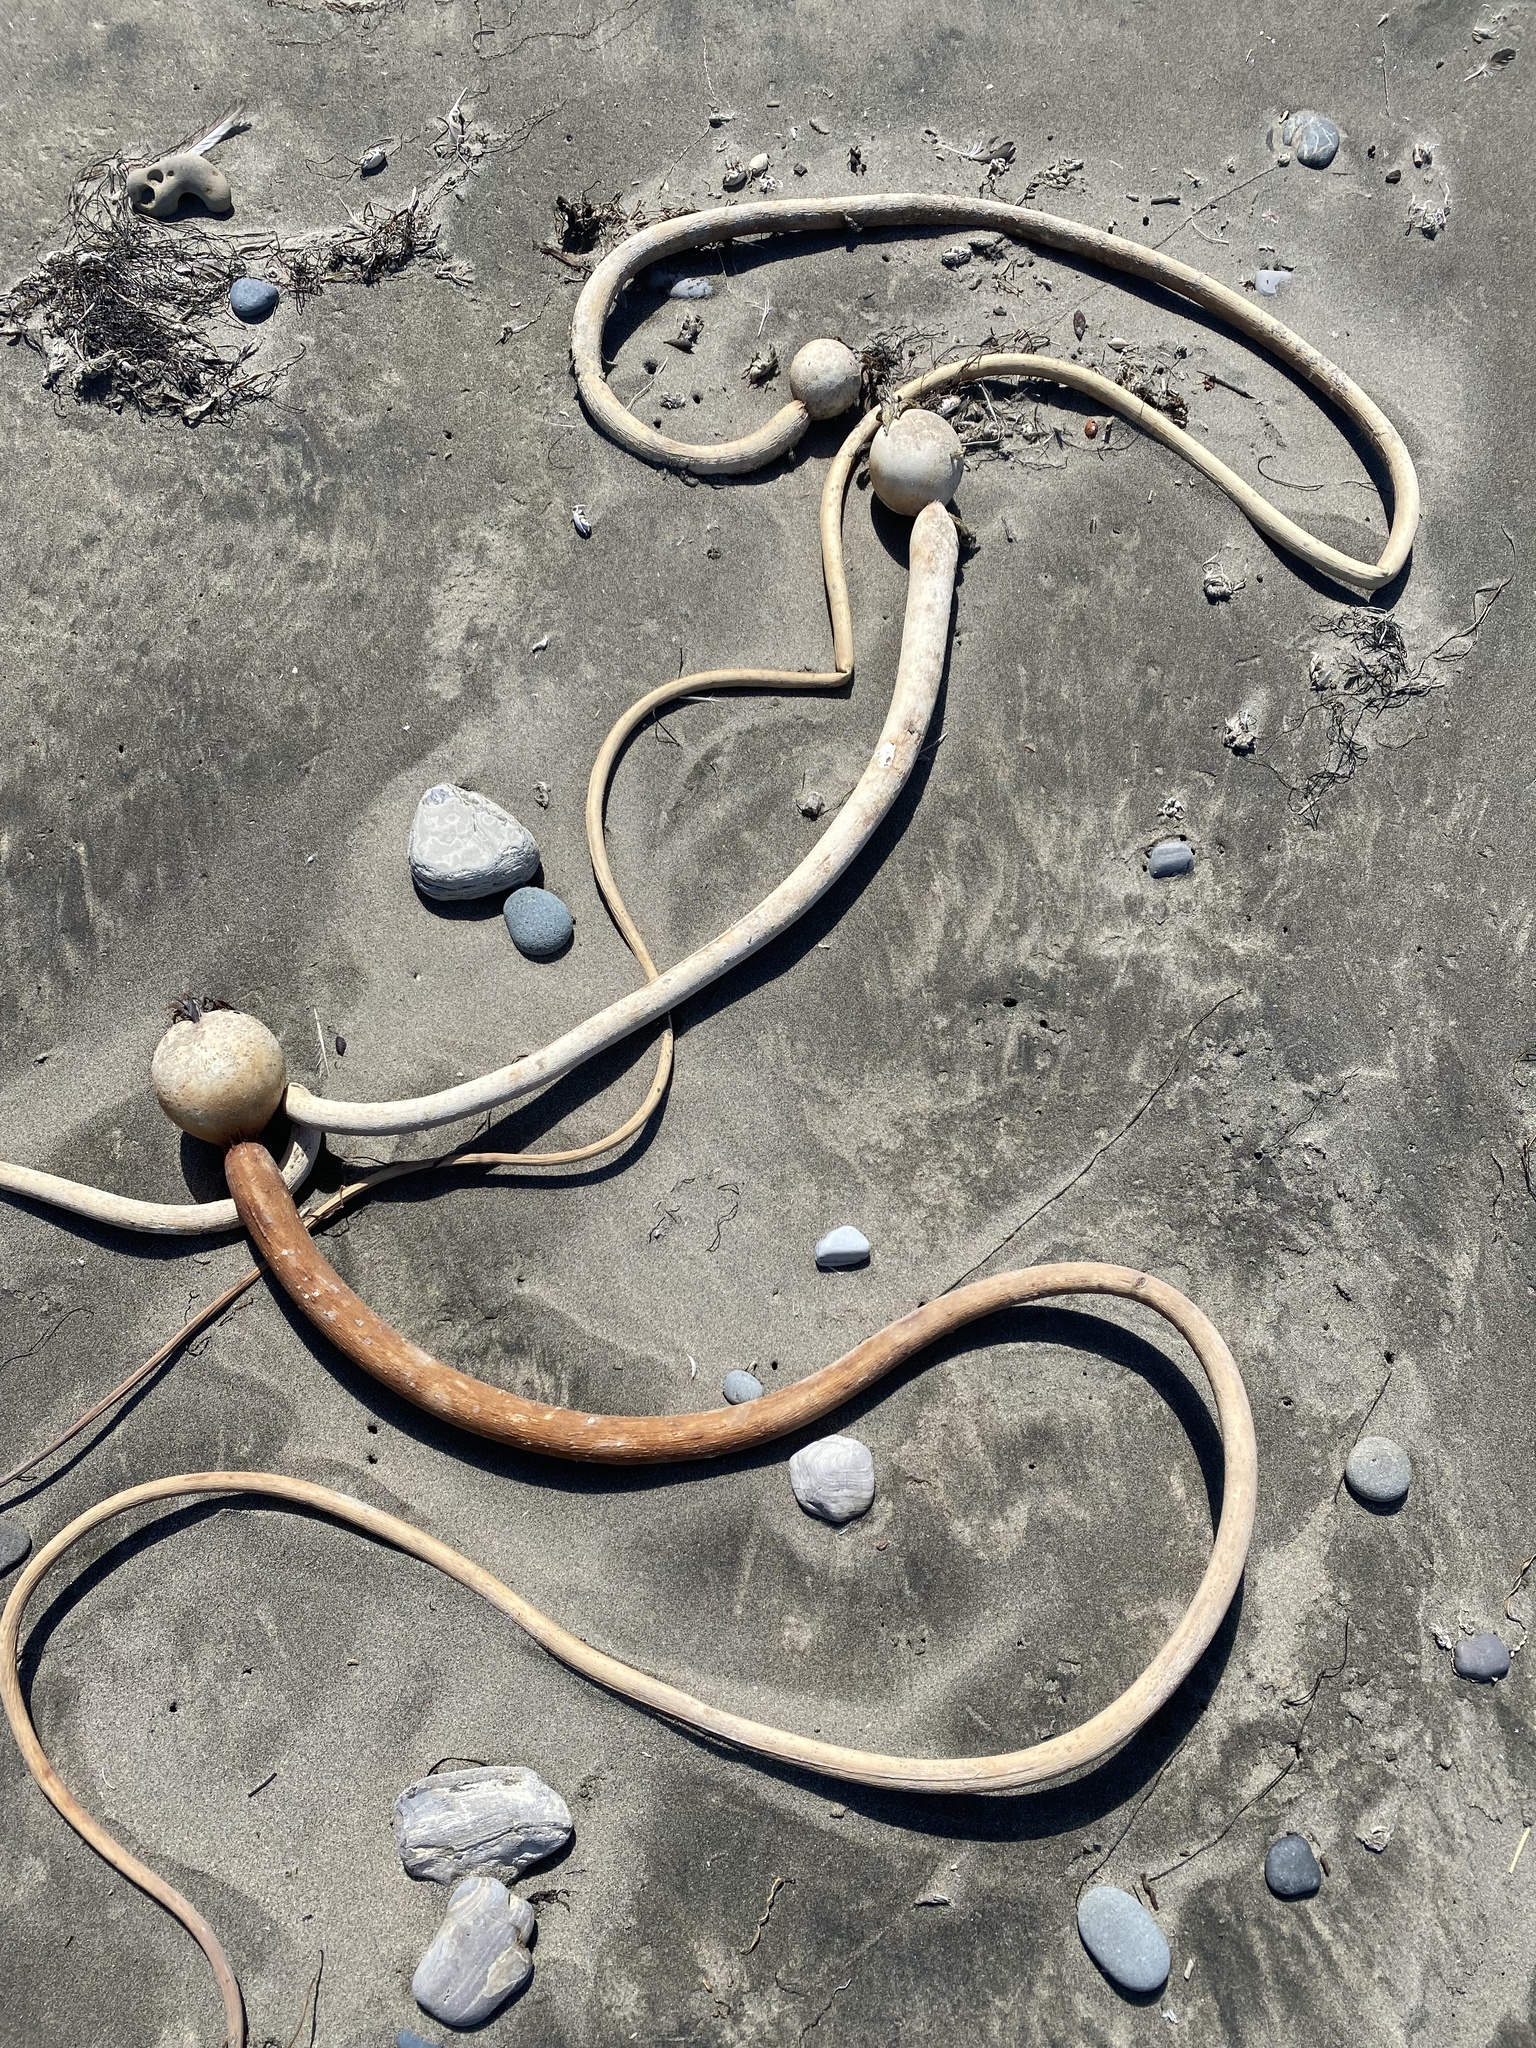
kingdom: Chromista
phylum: Ochrophyta
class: Phaeophyceae
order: Laminariales
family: Laminariaceae
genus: Nereocystis
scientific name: Nereocystis luetkeana
